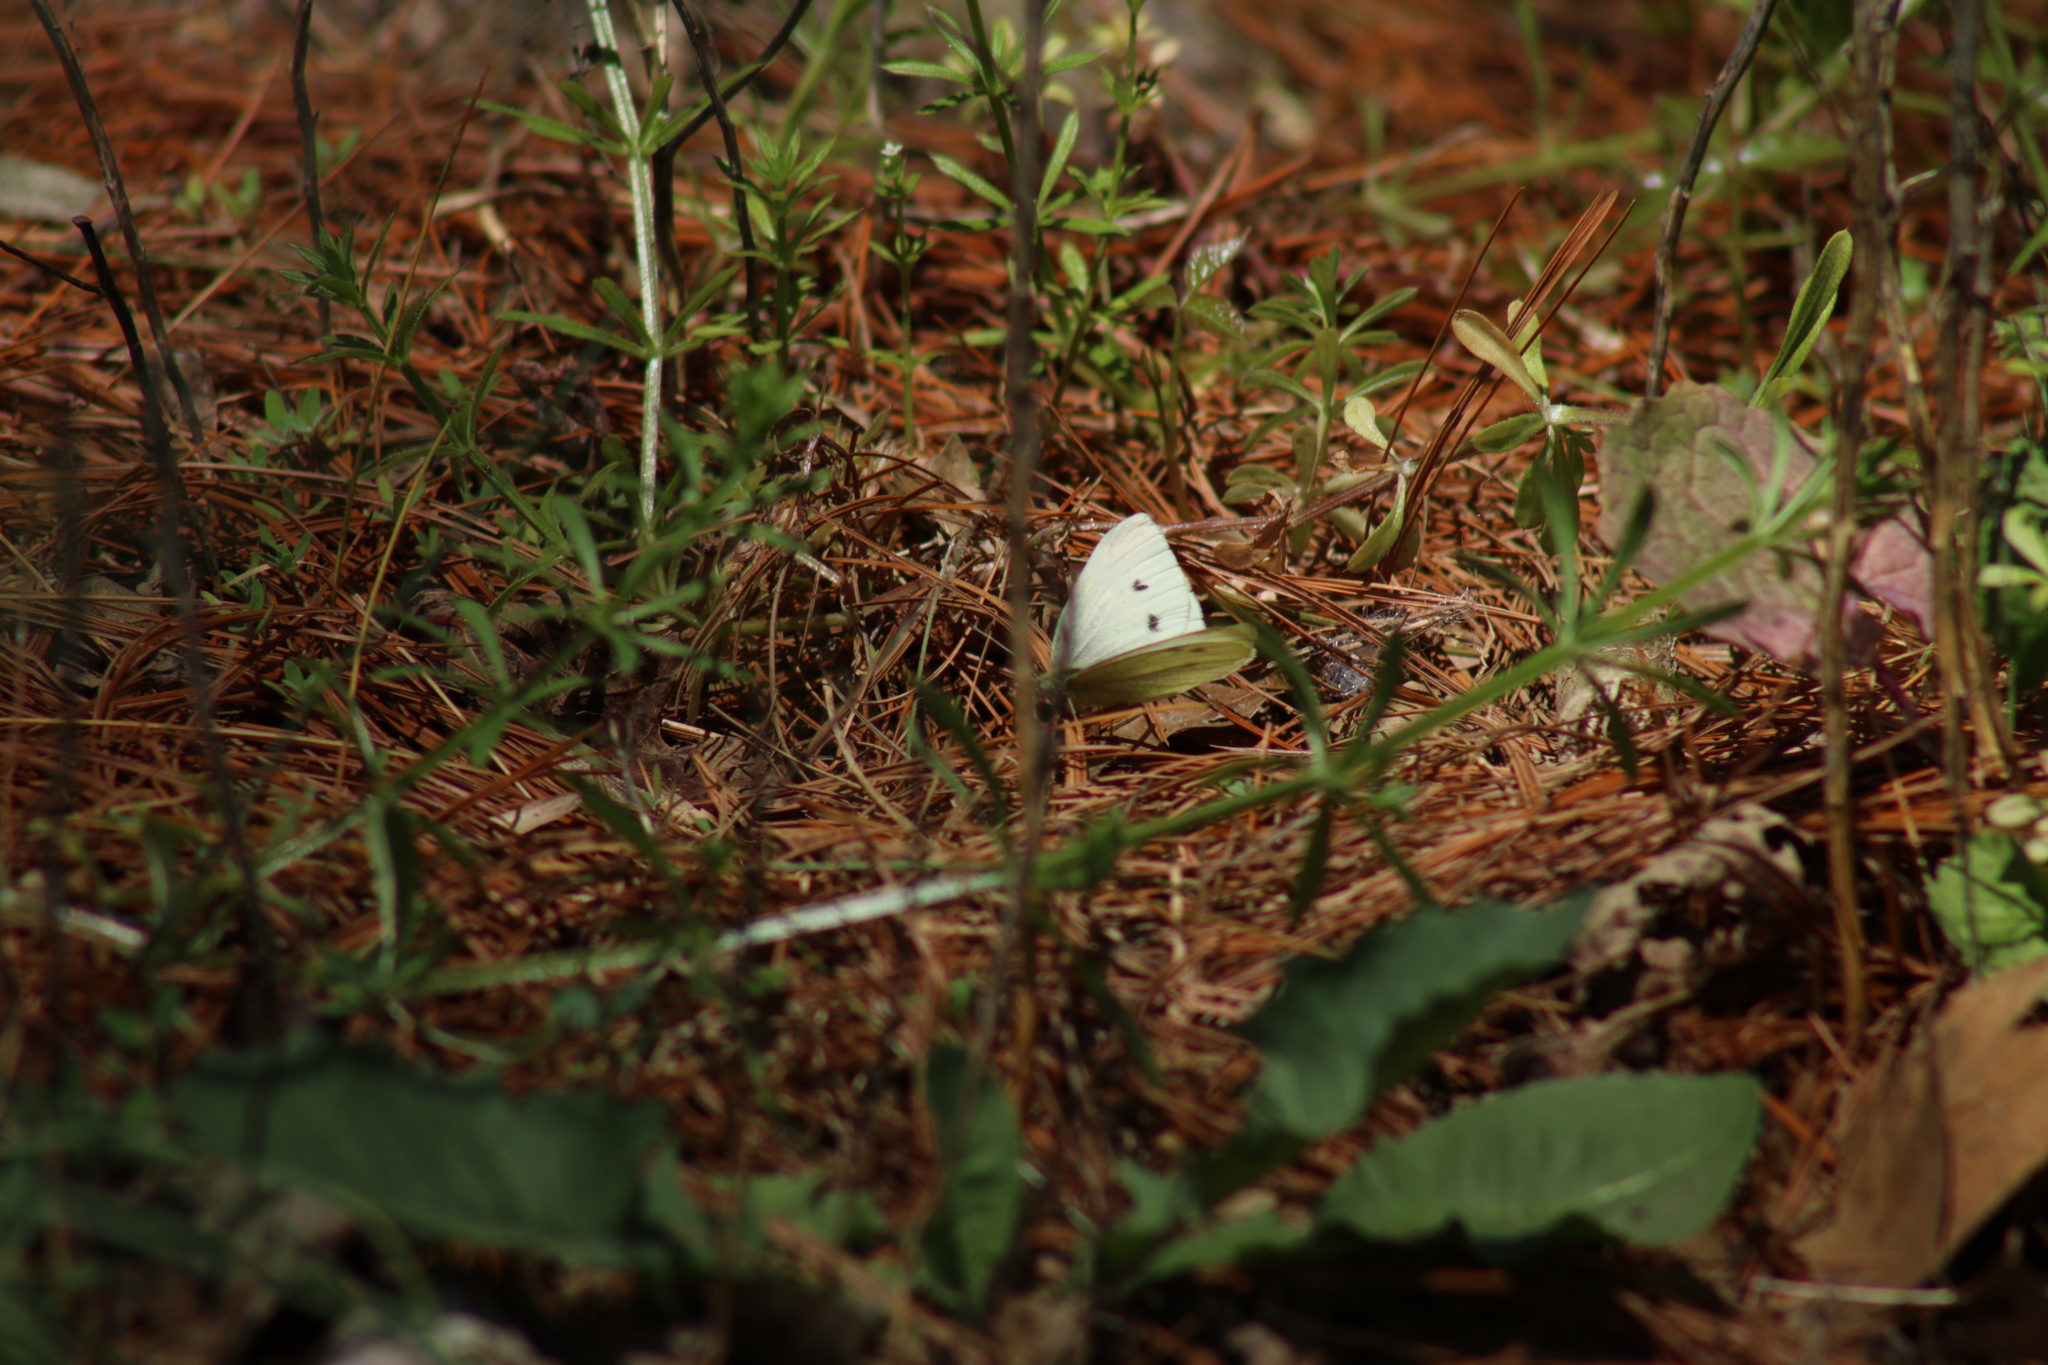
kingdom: Animalia
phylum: Arthropoda
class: Insecta
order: Lepidoptera
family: Pieridae
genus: Pieris
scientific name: Pieris rapae
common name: Small white
